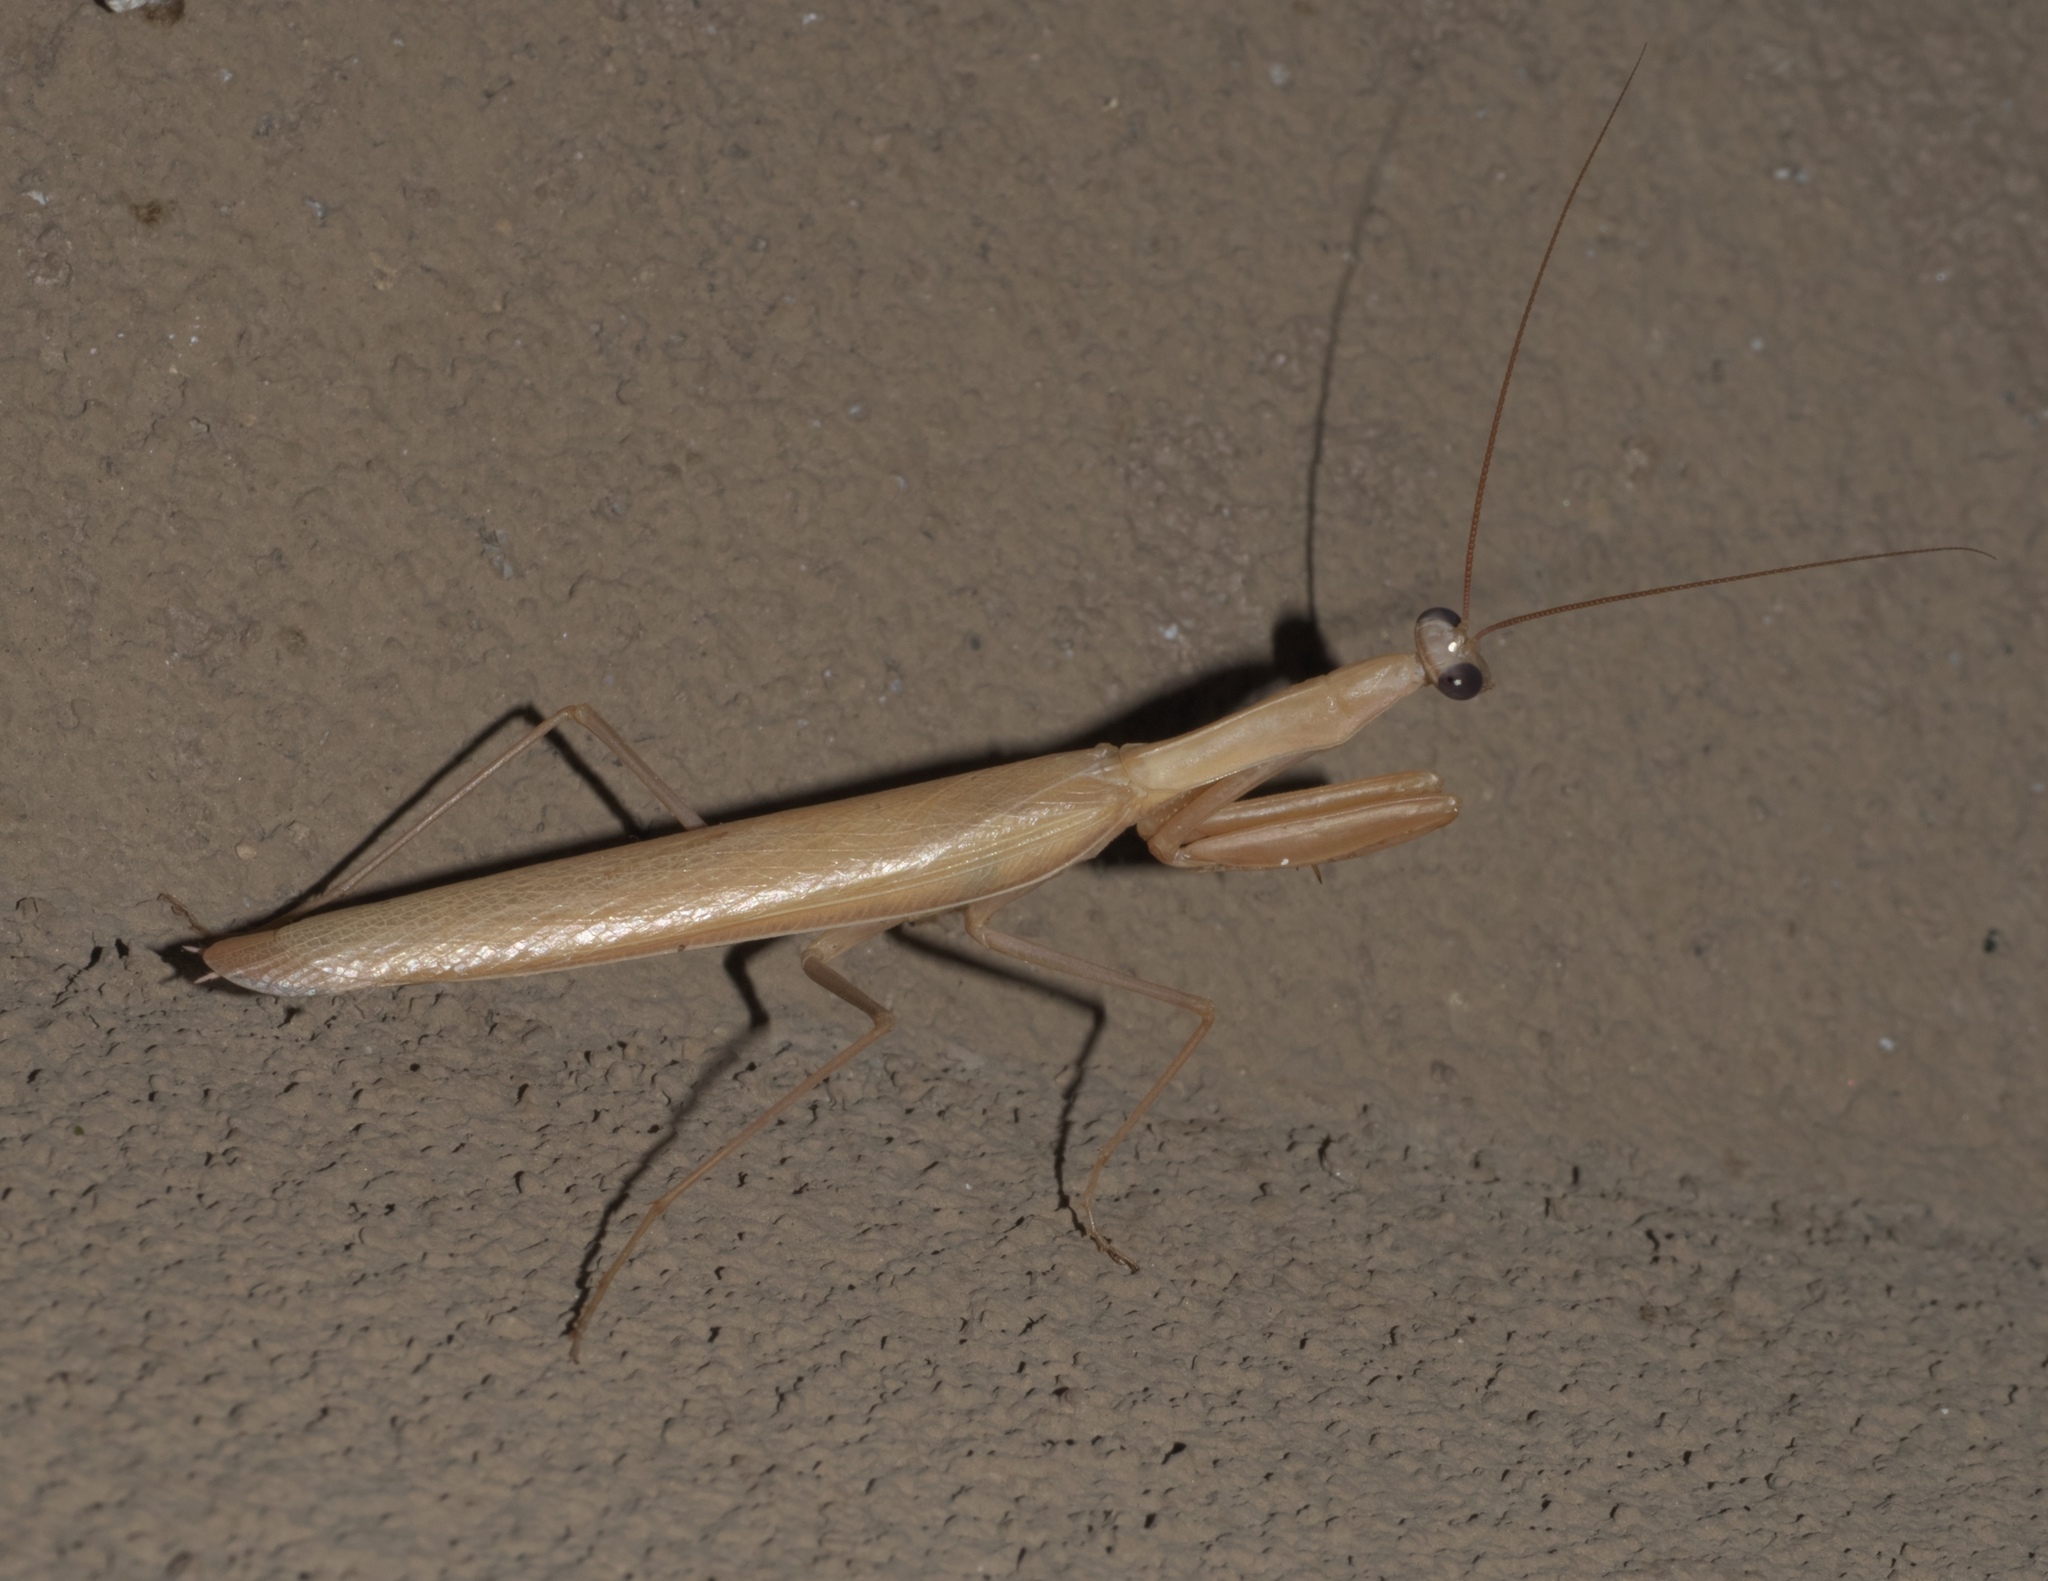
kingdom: Animalia
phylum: Arthropoda
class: Insecta
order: Mantodea
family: Mantidae
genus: Mantis
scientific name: Mantis religiosa
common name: Praying mantis
